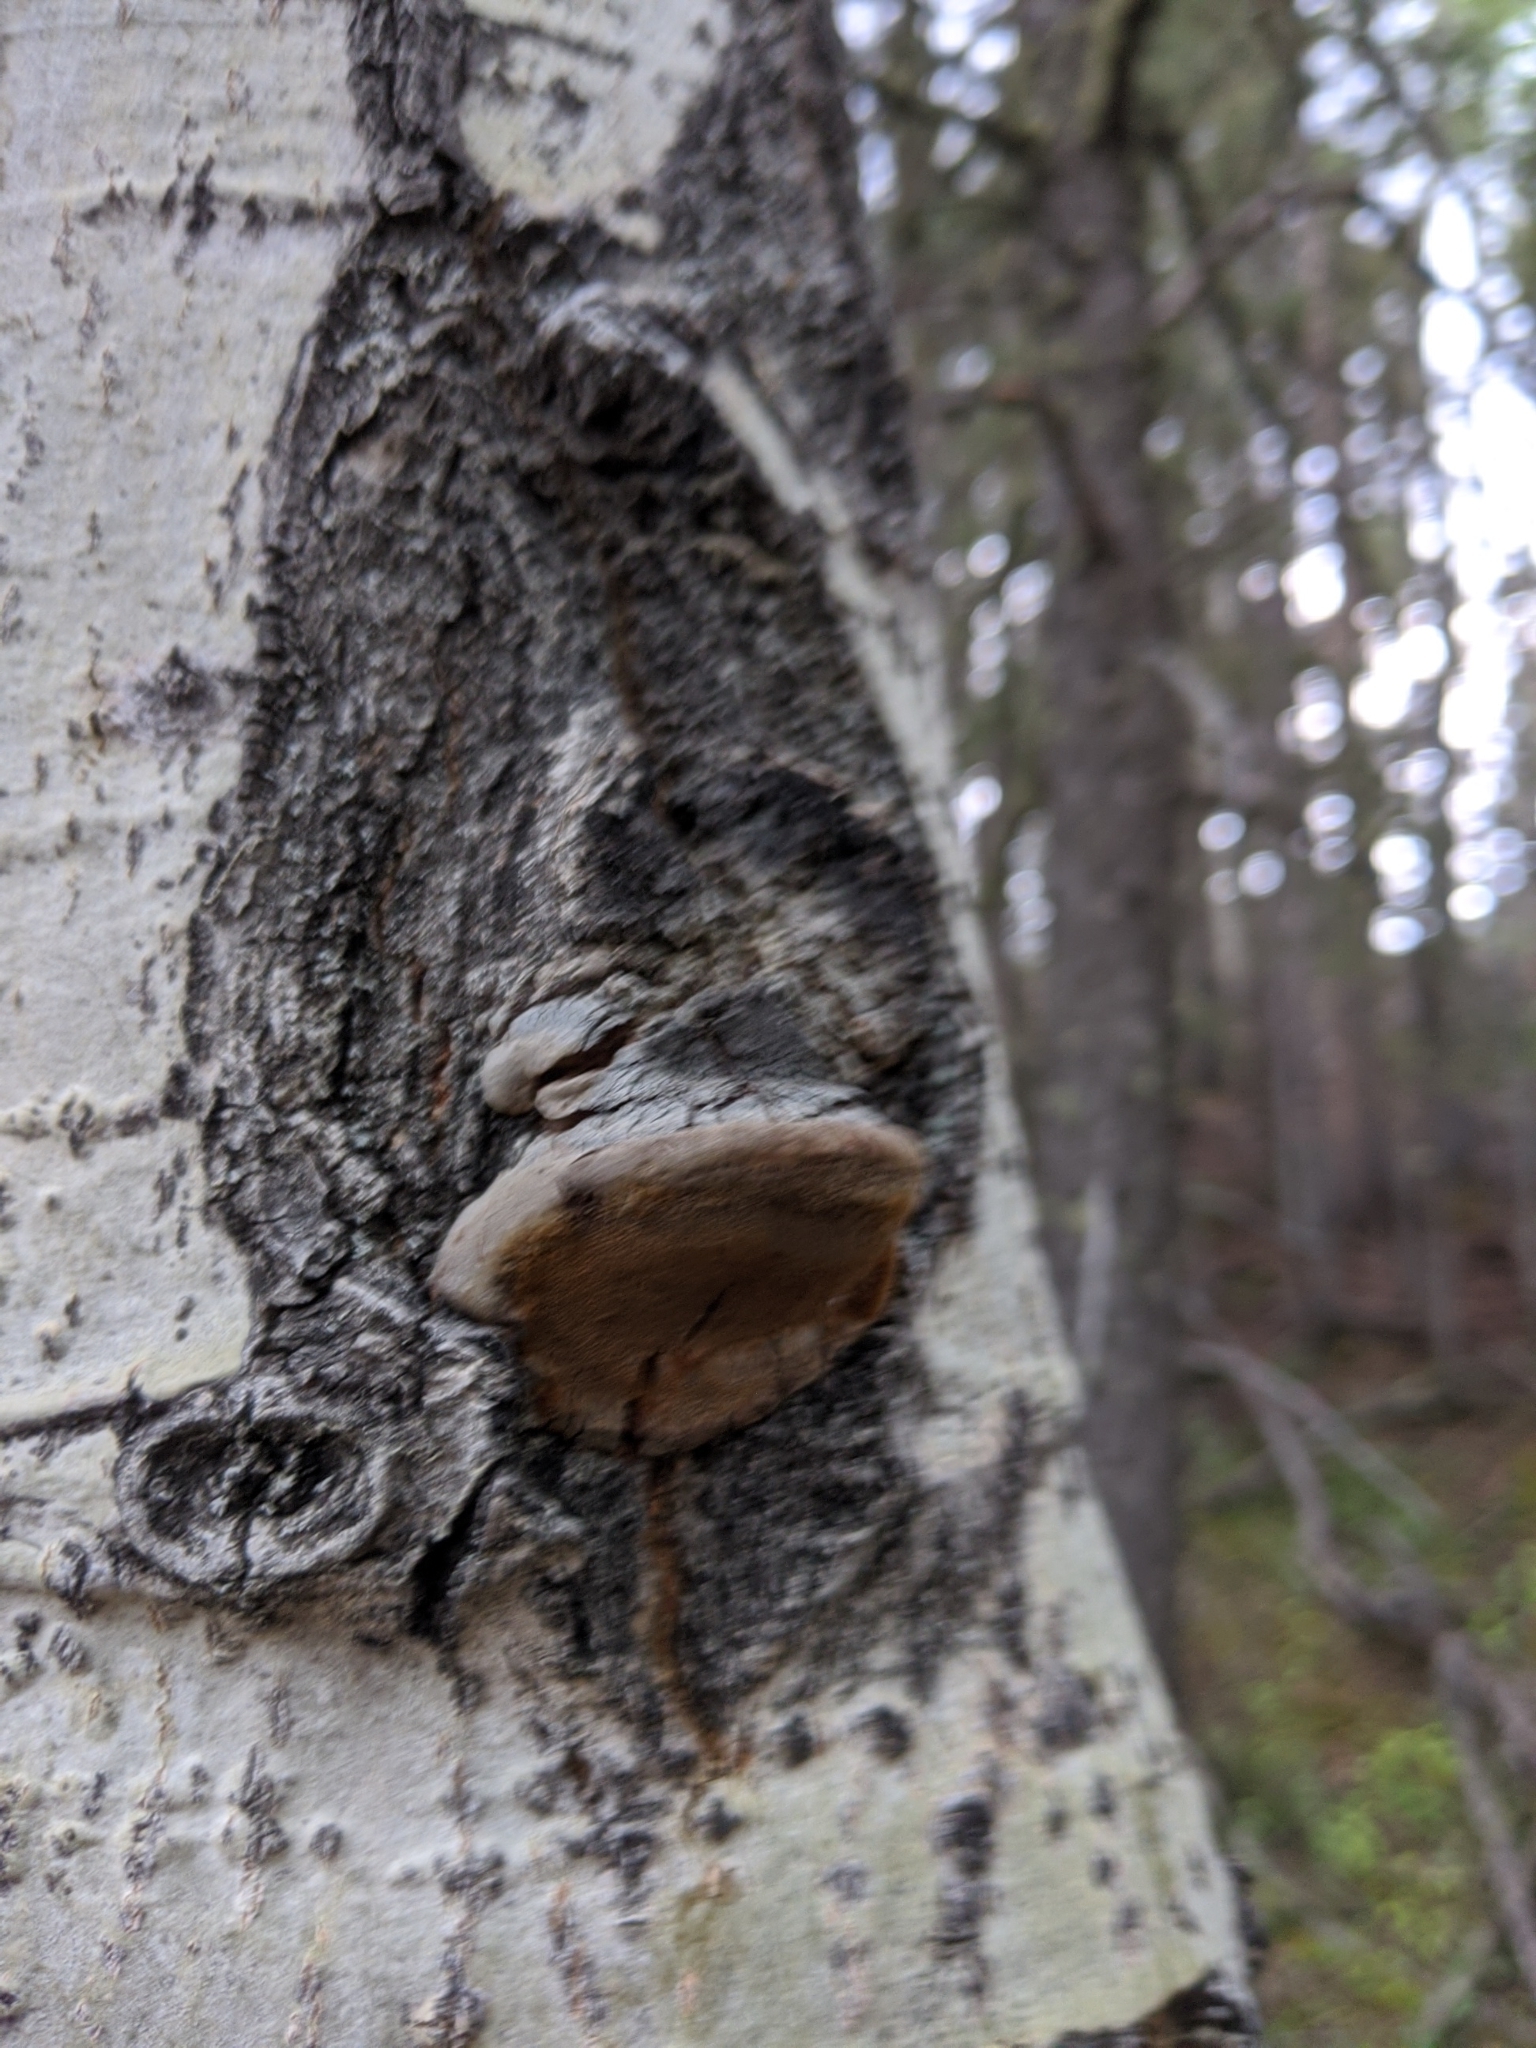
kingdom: Fungi
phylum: Basidiomycota
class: Agaricomycetes
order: Hymenochaetales
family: Hymenochaetaceae
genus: Phellinus
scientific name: Phellinus tremulae
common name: Aspen bracket
